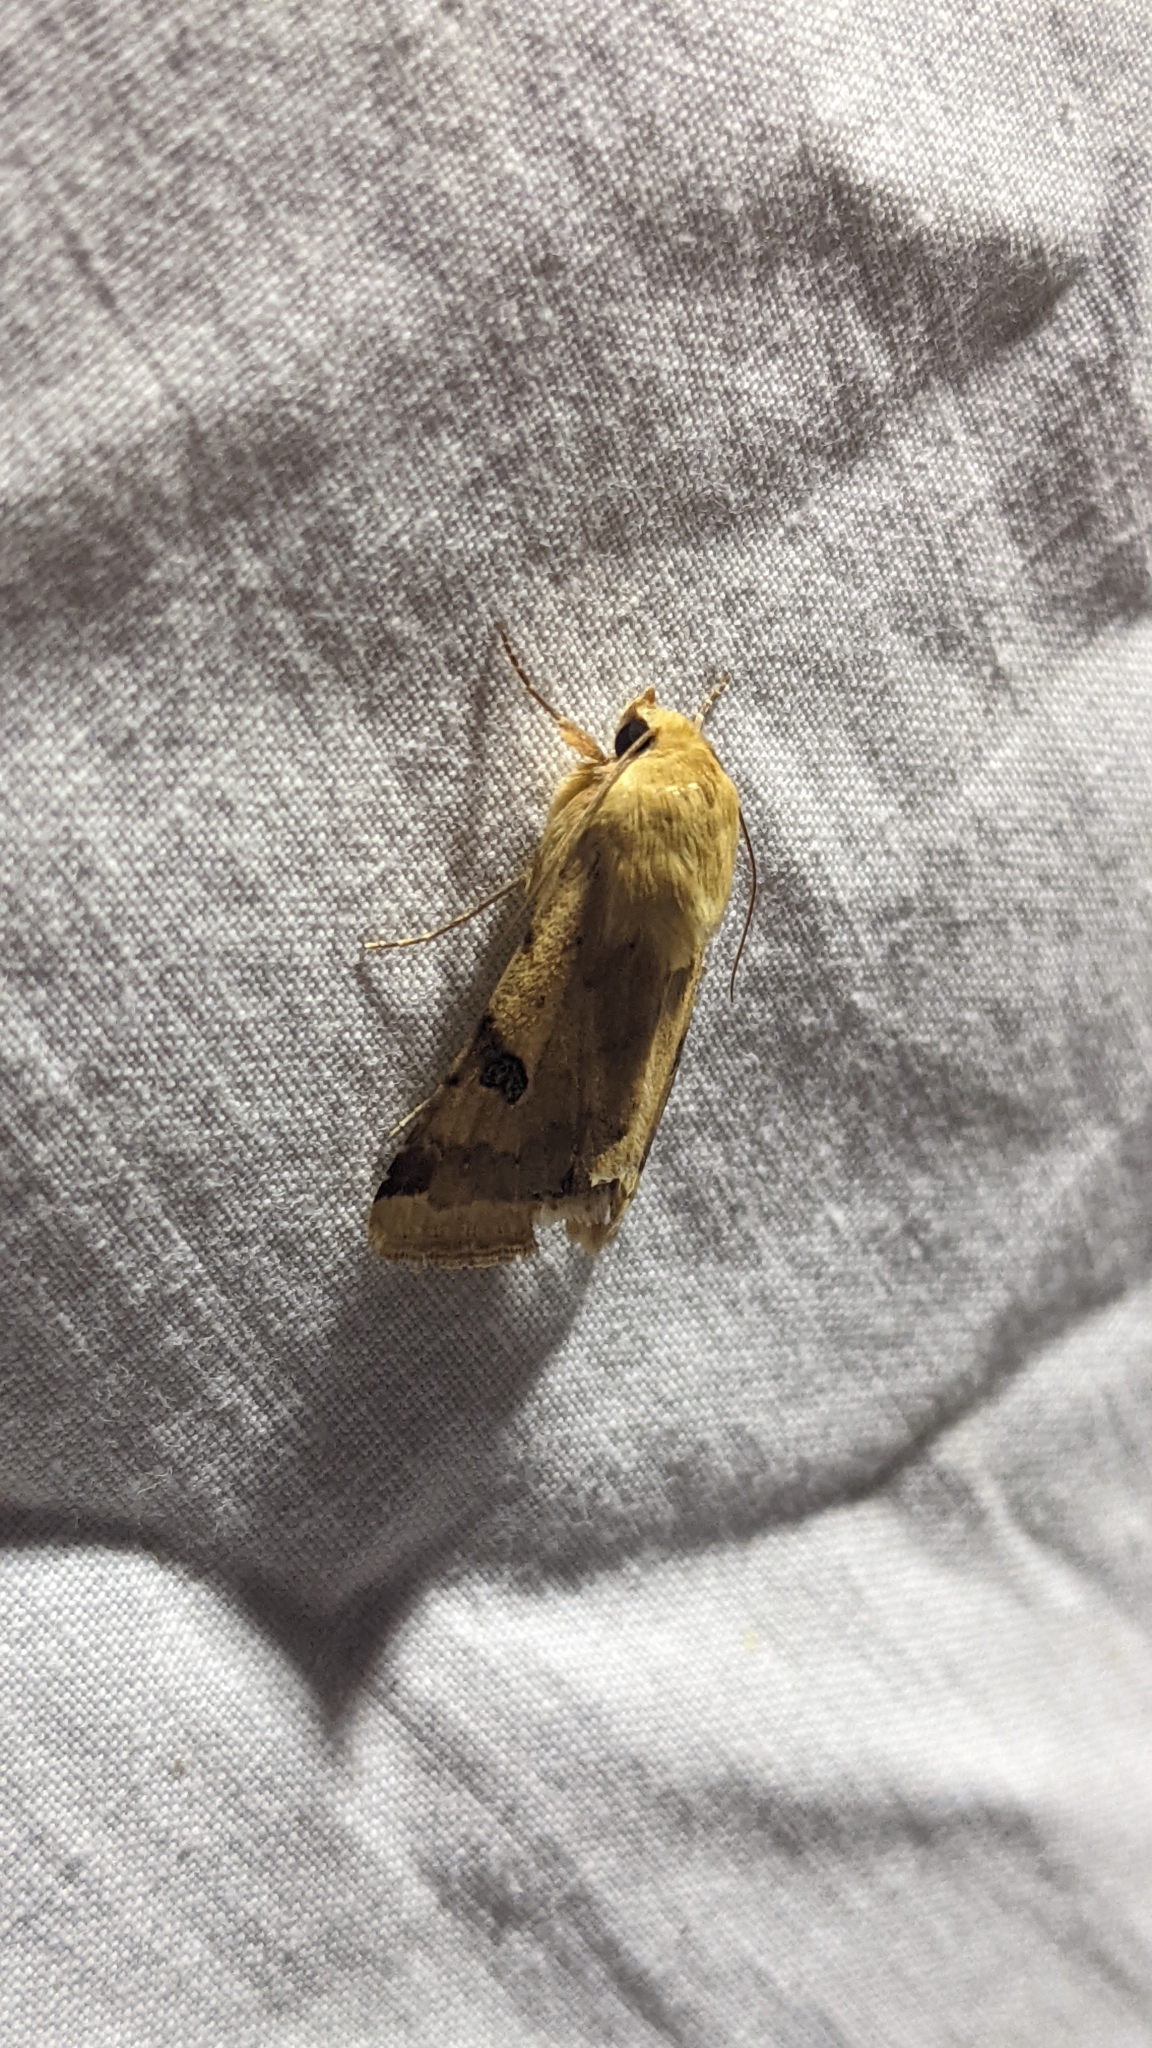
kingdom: Animalia
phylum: Arthropoda
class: Insecta
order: Lepidoptera
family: Noctuidae
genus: Heliothis
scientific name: Heliothis peltigera
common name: Bordered straw
